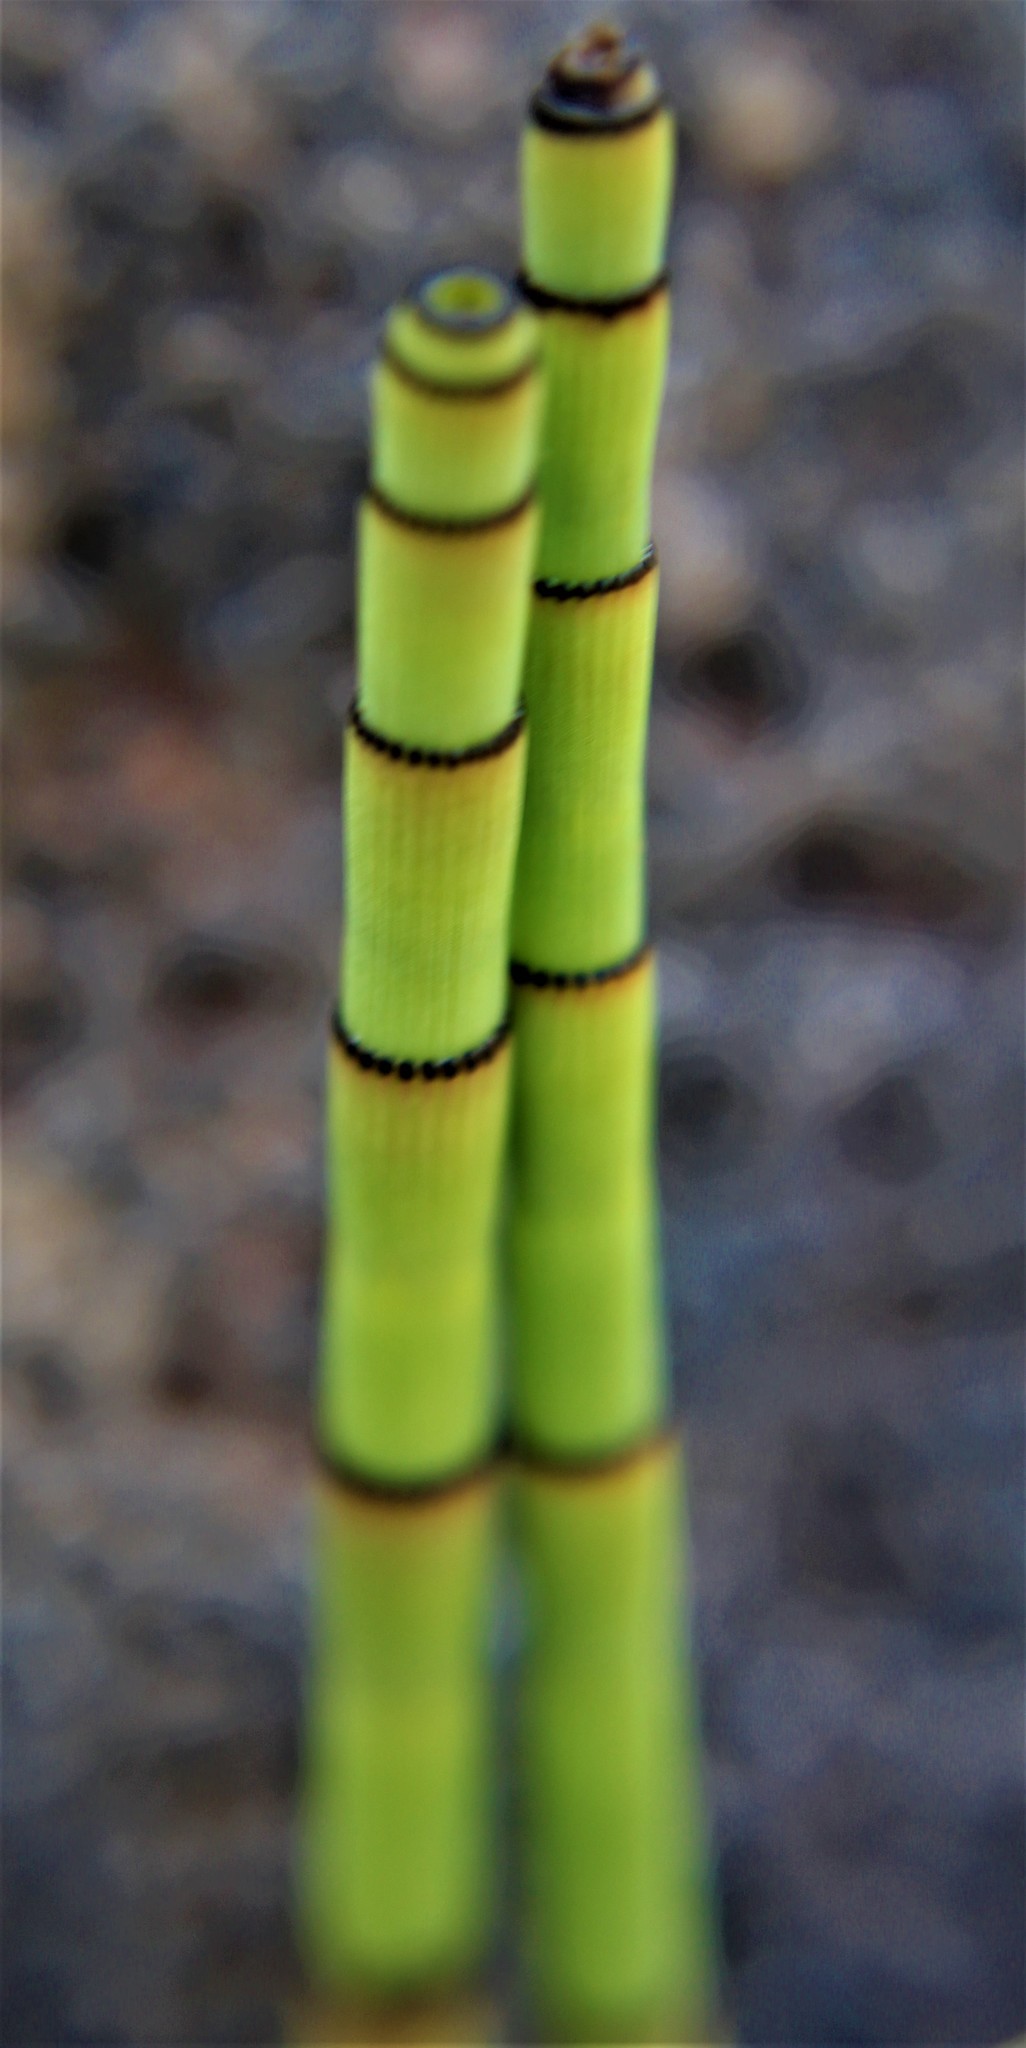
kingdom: Plantae
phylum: Tracheophyta
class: Polypodiopsida
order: Equisetales
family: Equisetaceae
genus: Equisetum
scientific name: Equisetum praealtum
